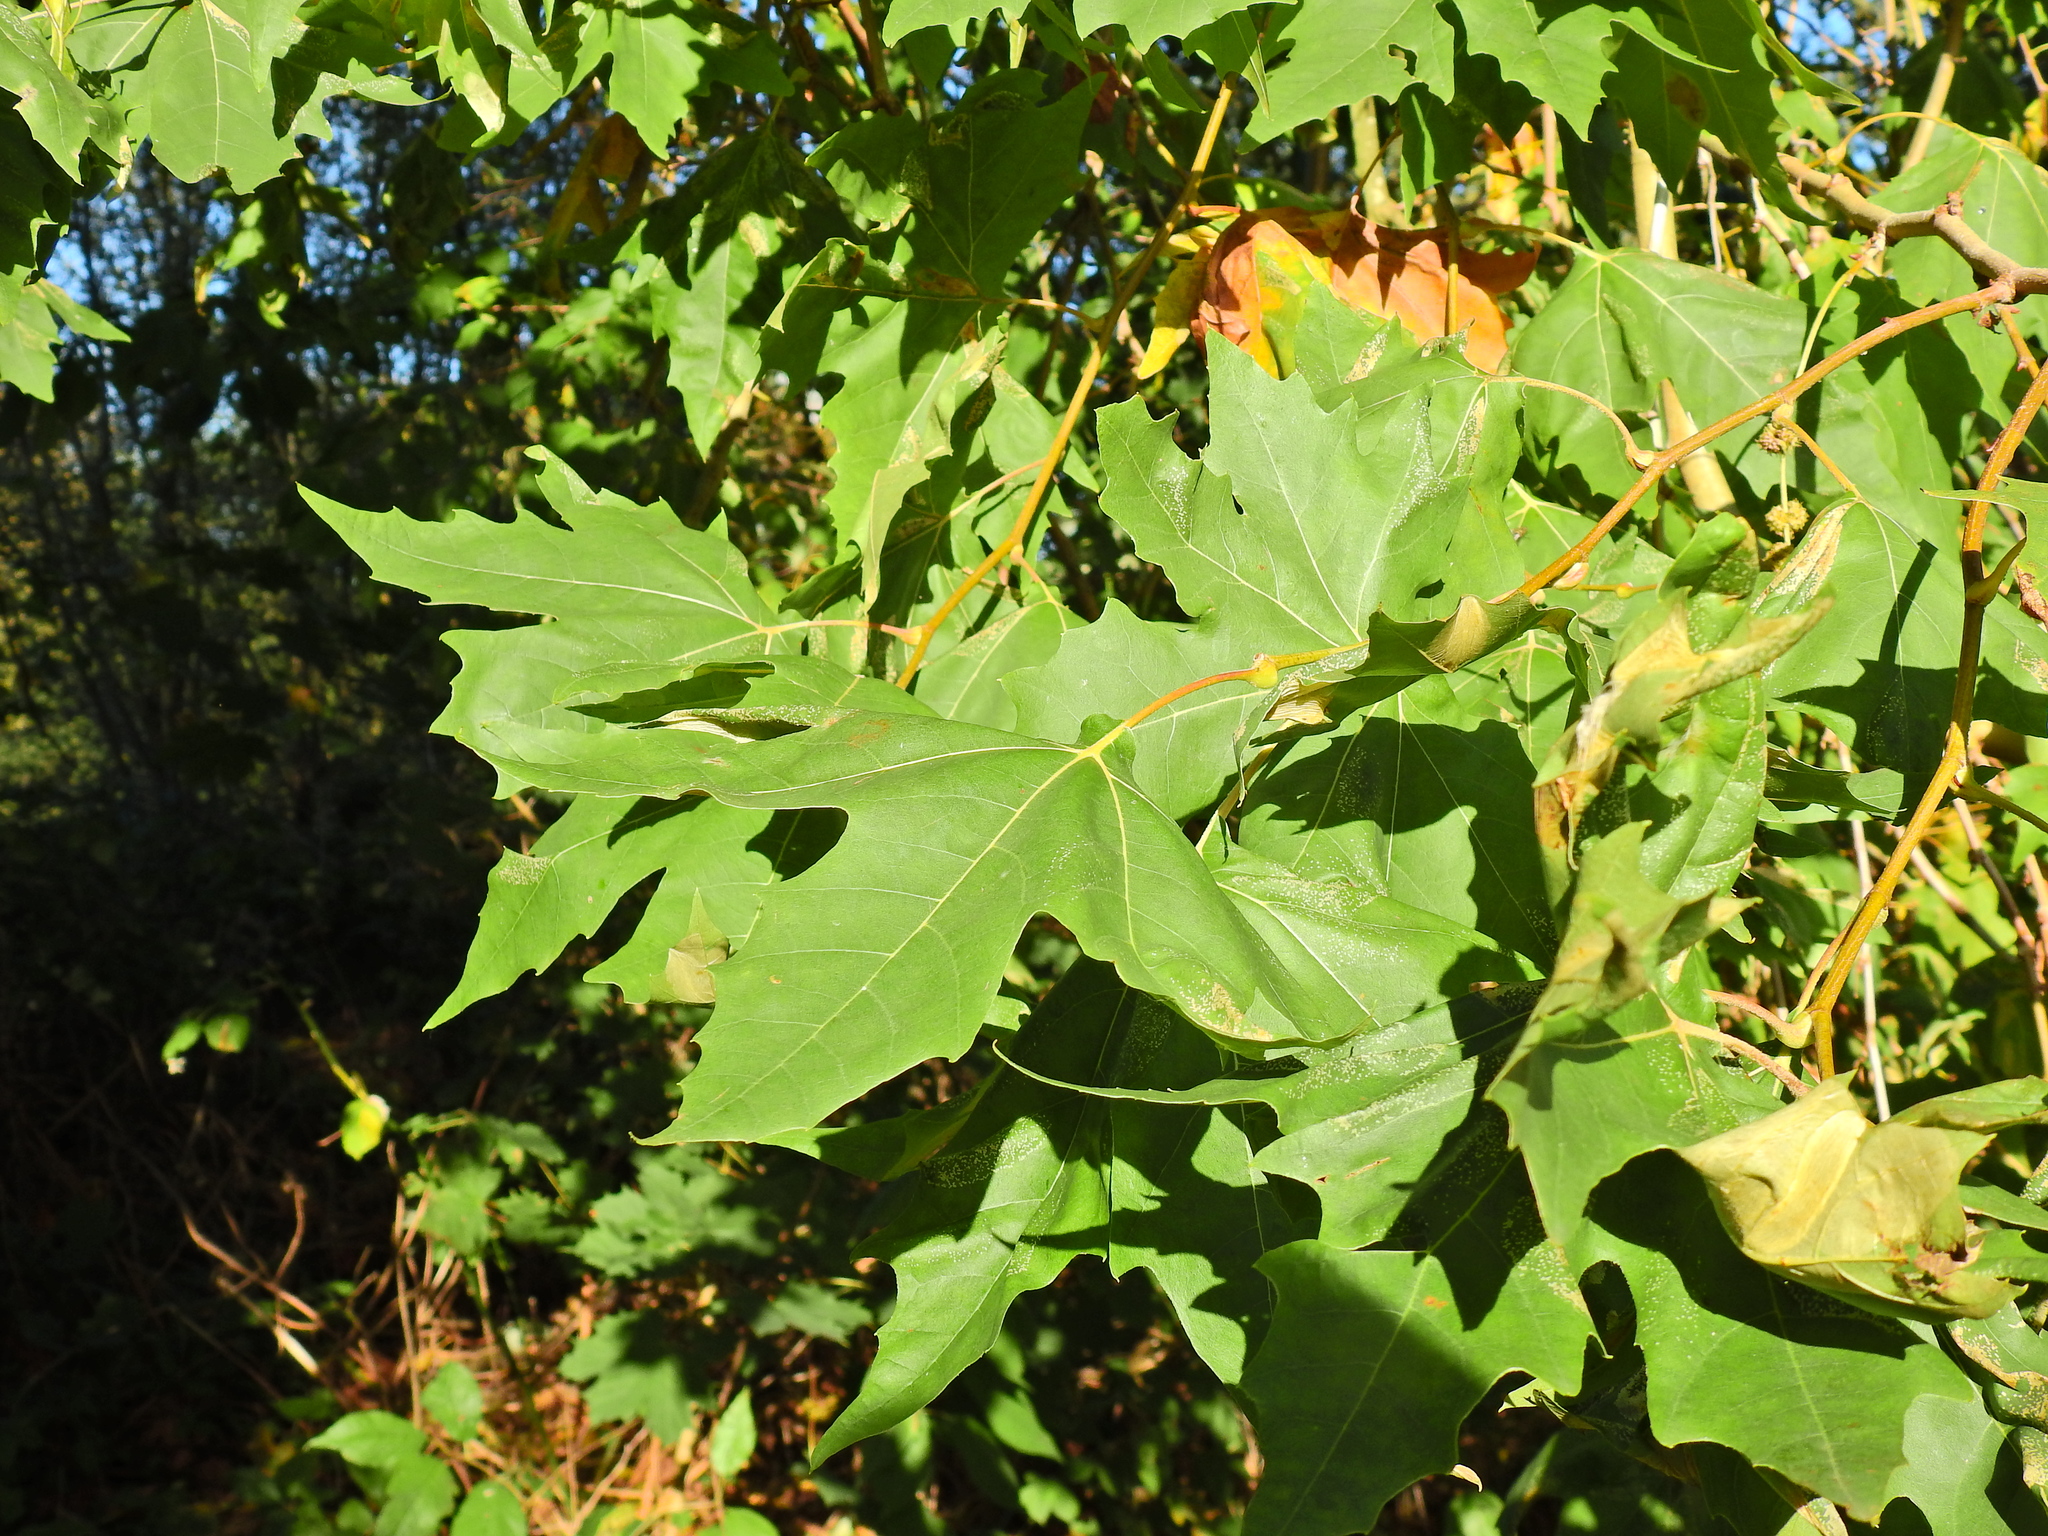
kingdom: Plantae
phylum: Tracheophyta
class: Magnoliopsida
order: Proteales
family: Platanaceae
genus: Platanus
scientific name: Platanus orientalis
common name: Oriental plane
